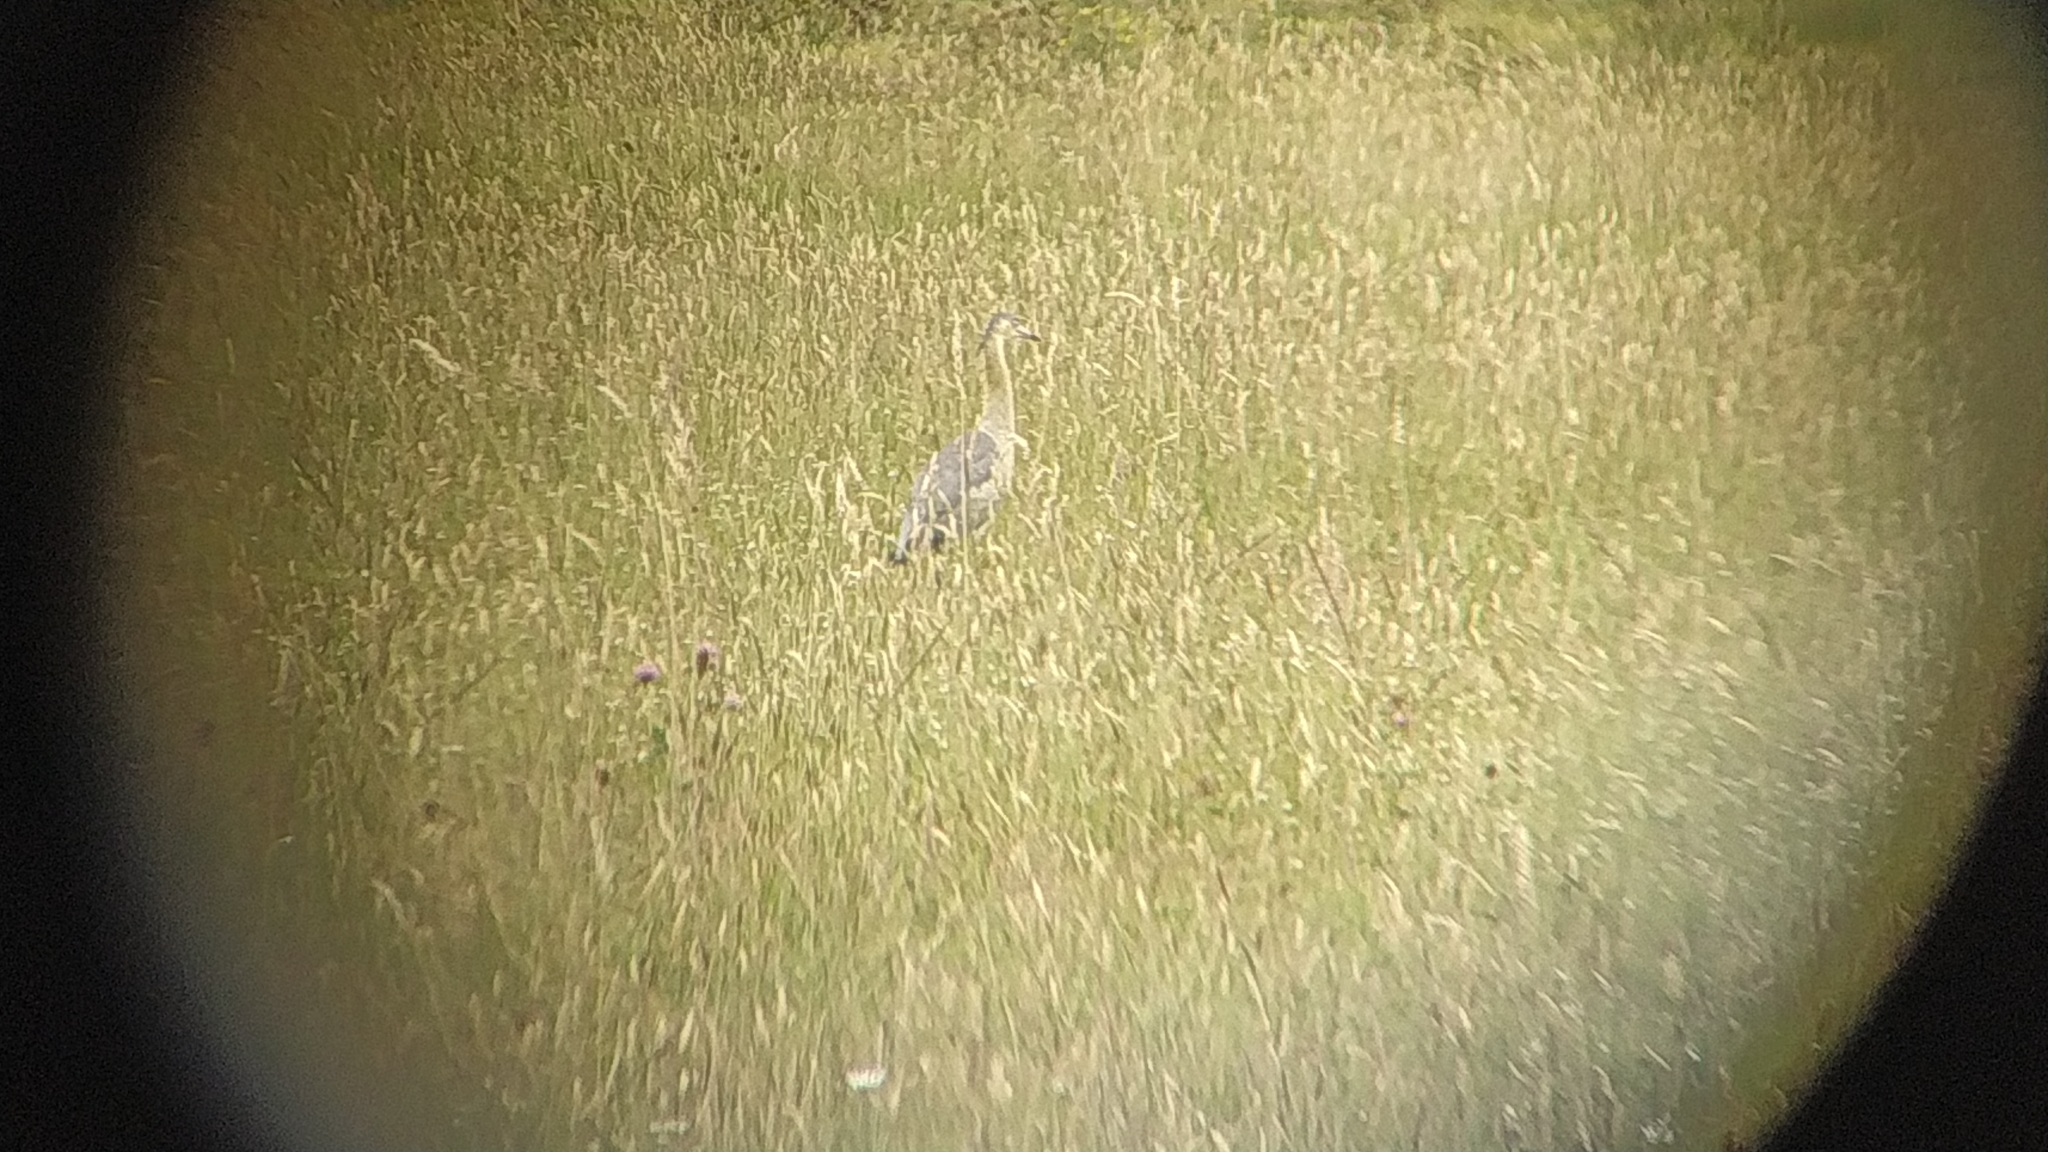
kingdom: Animalia
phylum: Chordata
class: Aves
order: Pelecaniformes
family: Ardeidae
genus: Syrigma
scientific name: Syrigma sibilatrix
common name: Whistling heron
